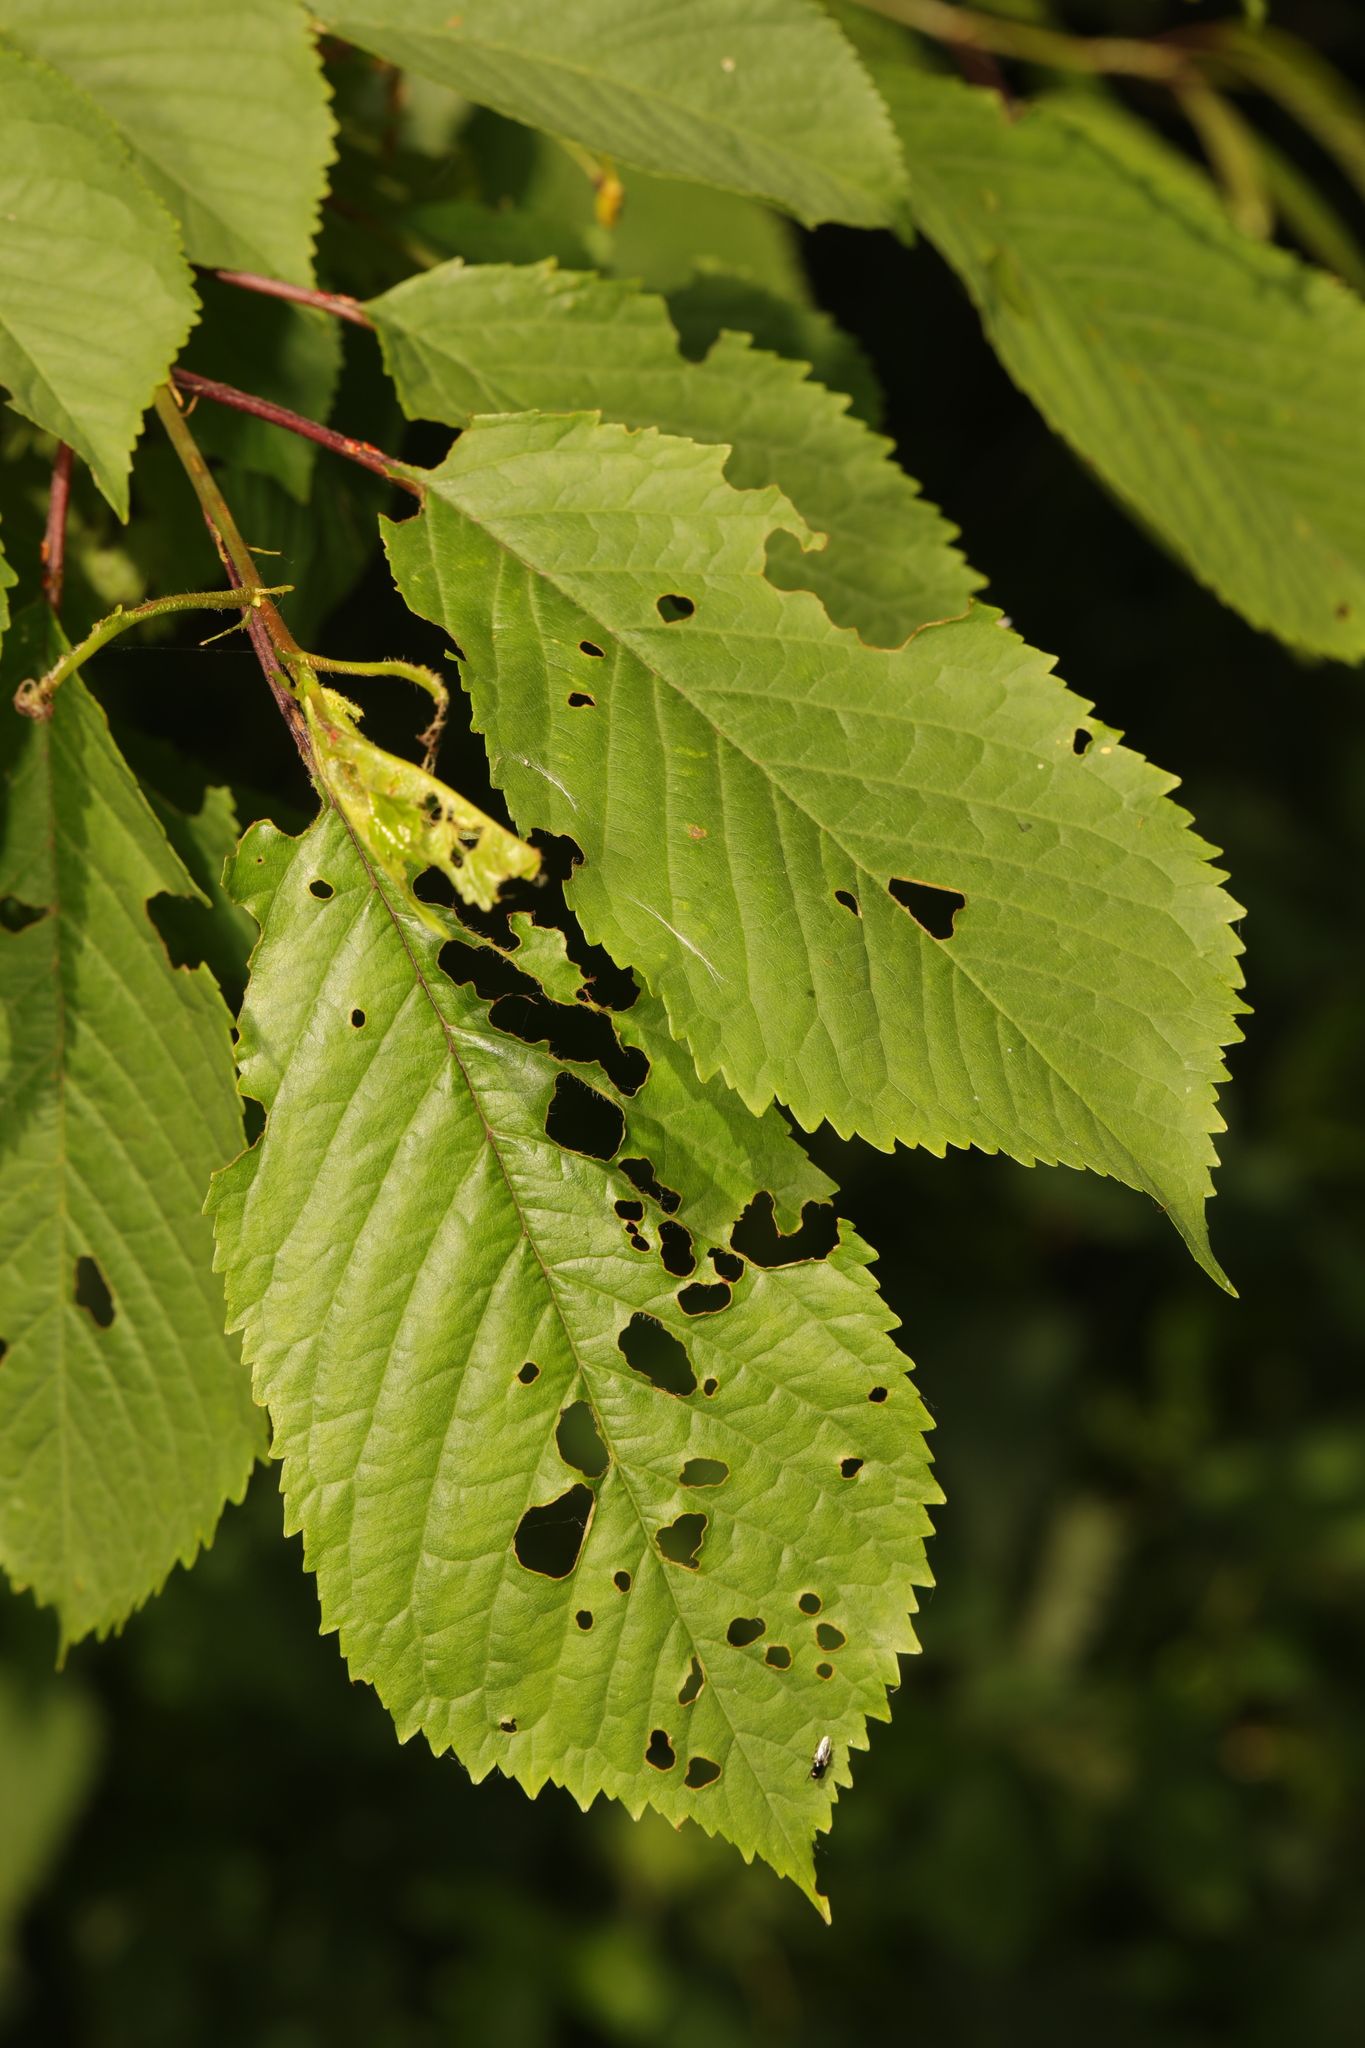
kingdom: Plantae
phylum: Tracheophyta
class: Magnoliopsida
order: Rosales
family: Rosaceae
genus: Prunus
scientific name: Prunus avium
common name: Sweet cherry
